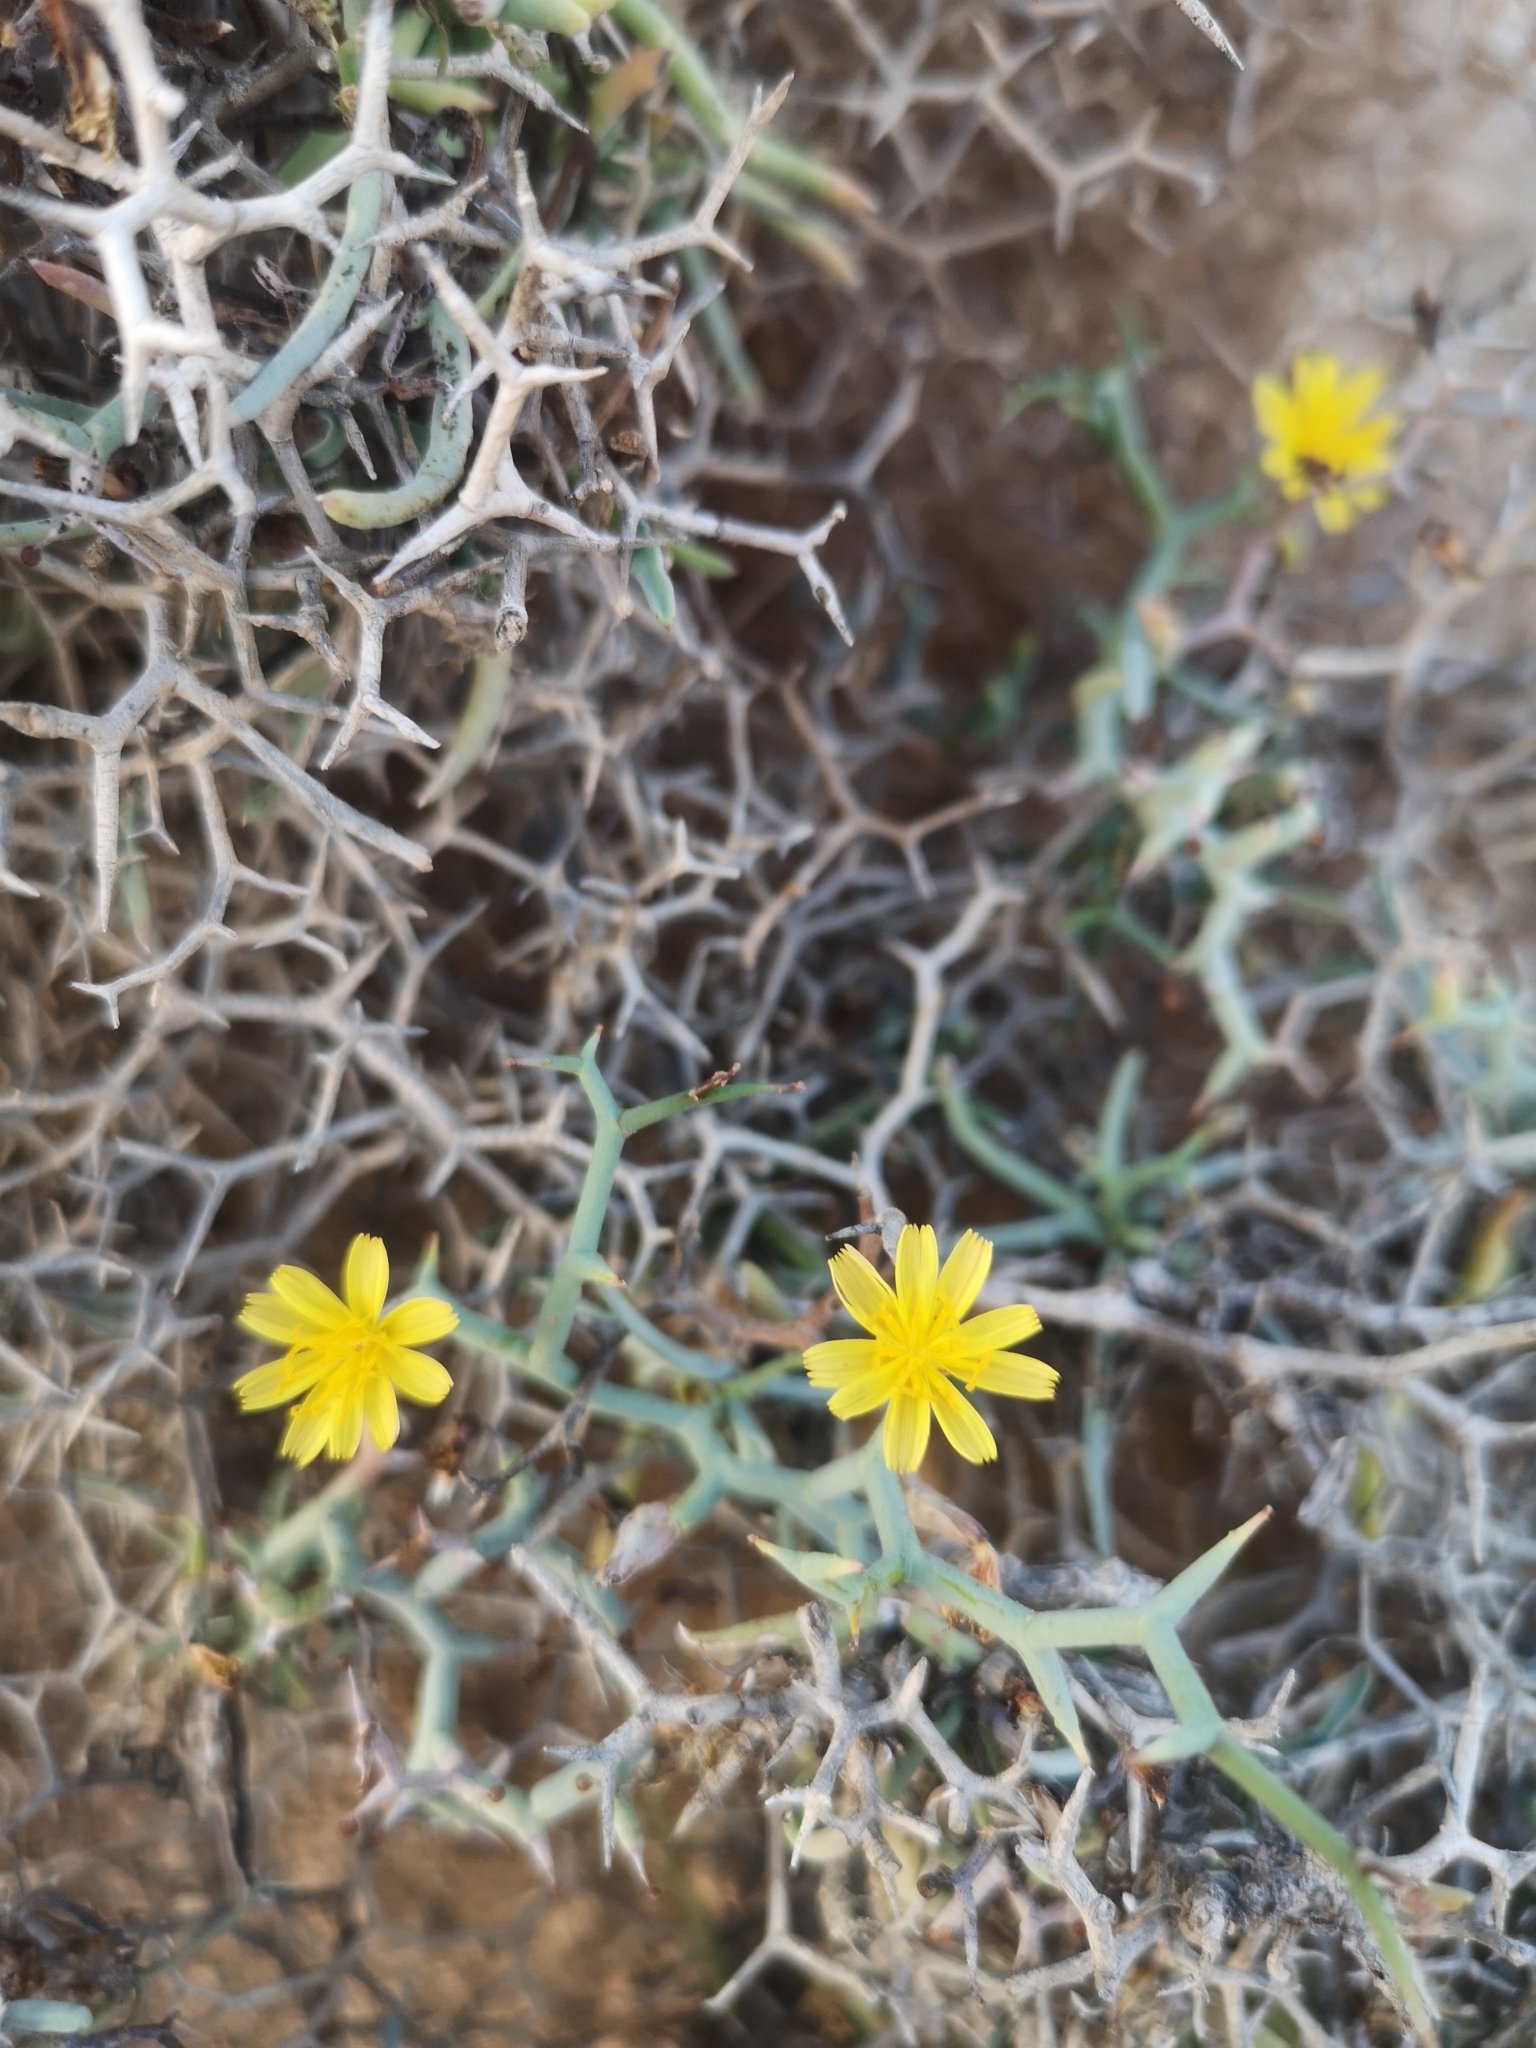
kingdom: Plantae
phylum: Tracheophyta
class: Magnoliopsida
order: Asterales
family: Asteraceae
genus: Launaea
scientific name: Launaea arborescens
